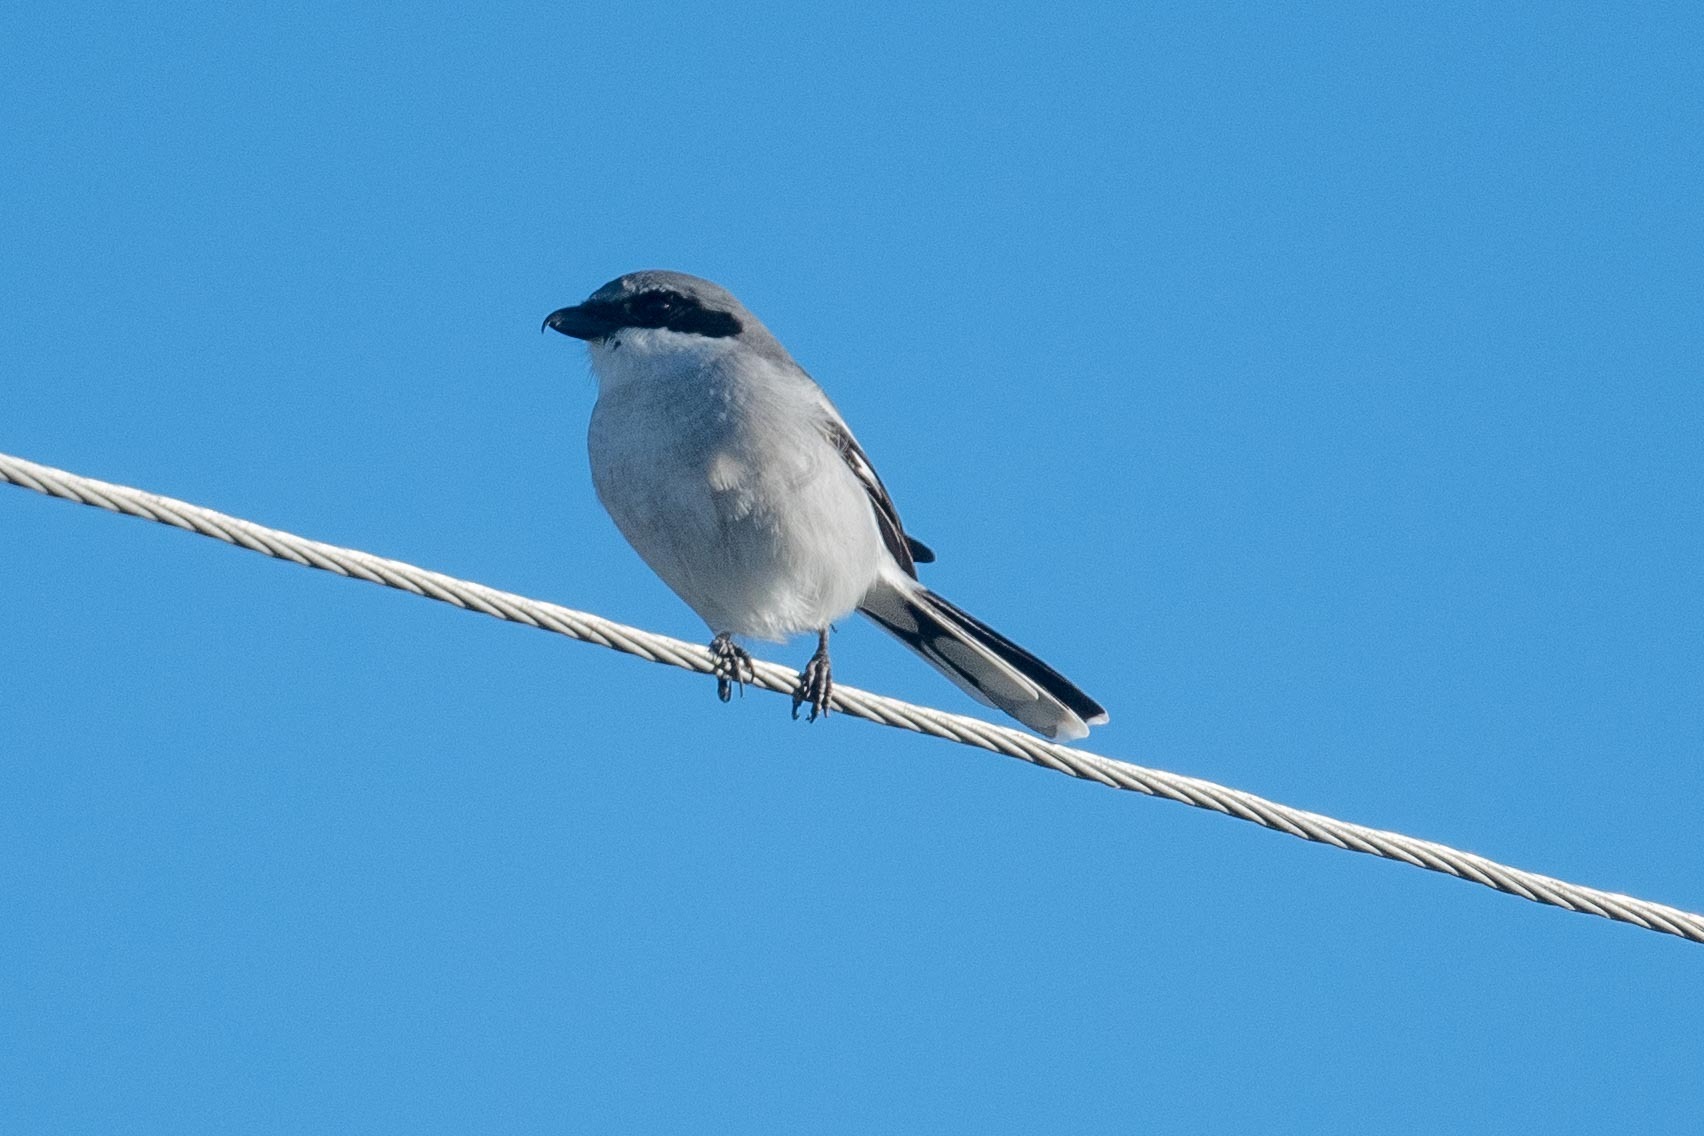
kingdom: Animalia
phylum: Chordata
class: Aves
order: Passeriformes
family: Laniidae
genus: Lanius
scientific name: Lanius ludovicianus
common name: Loggerhead shrike
